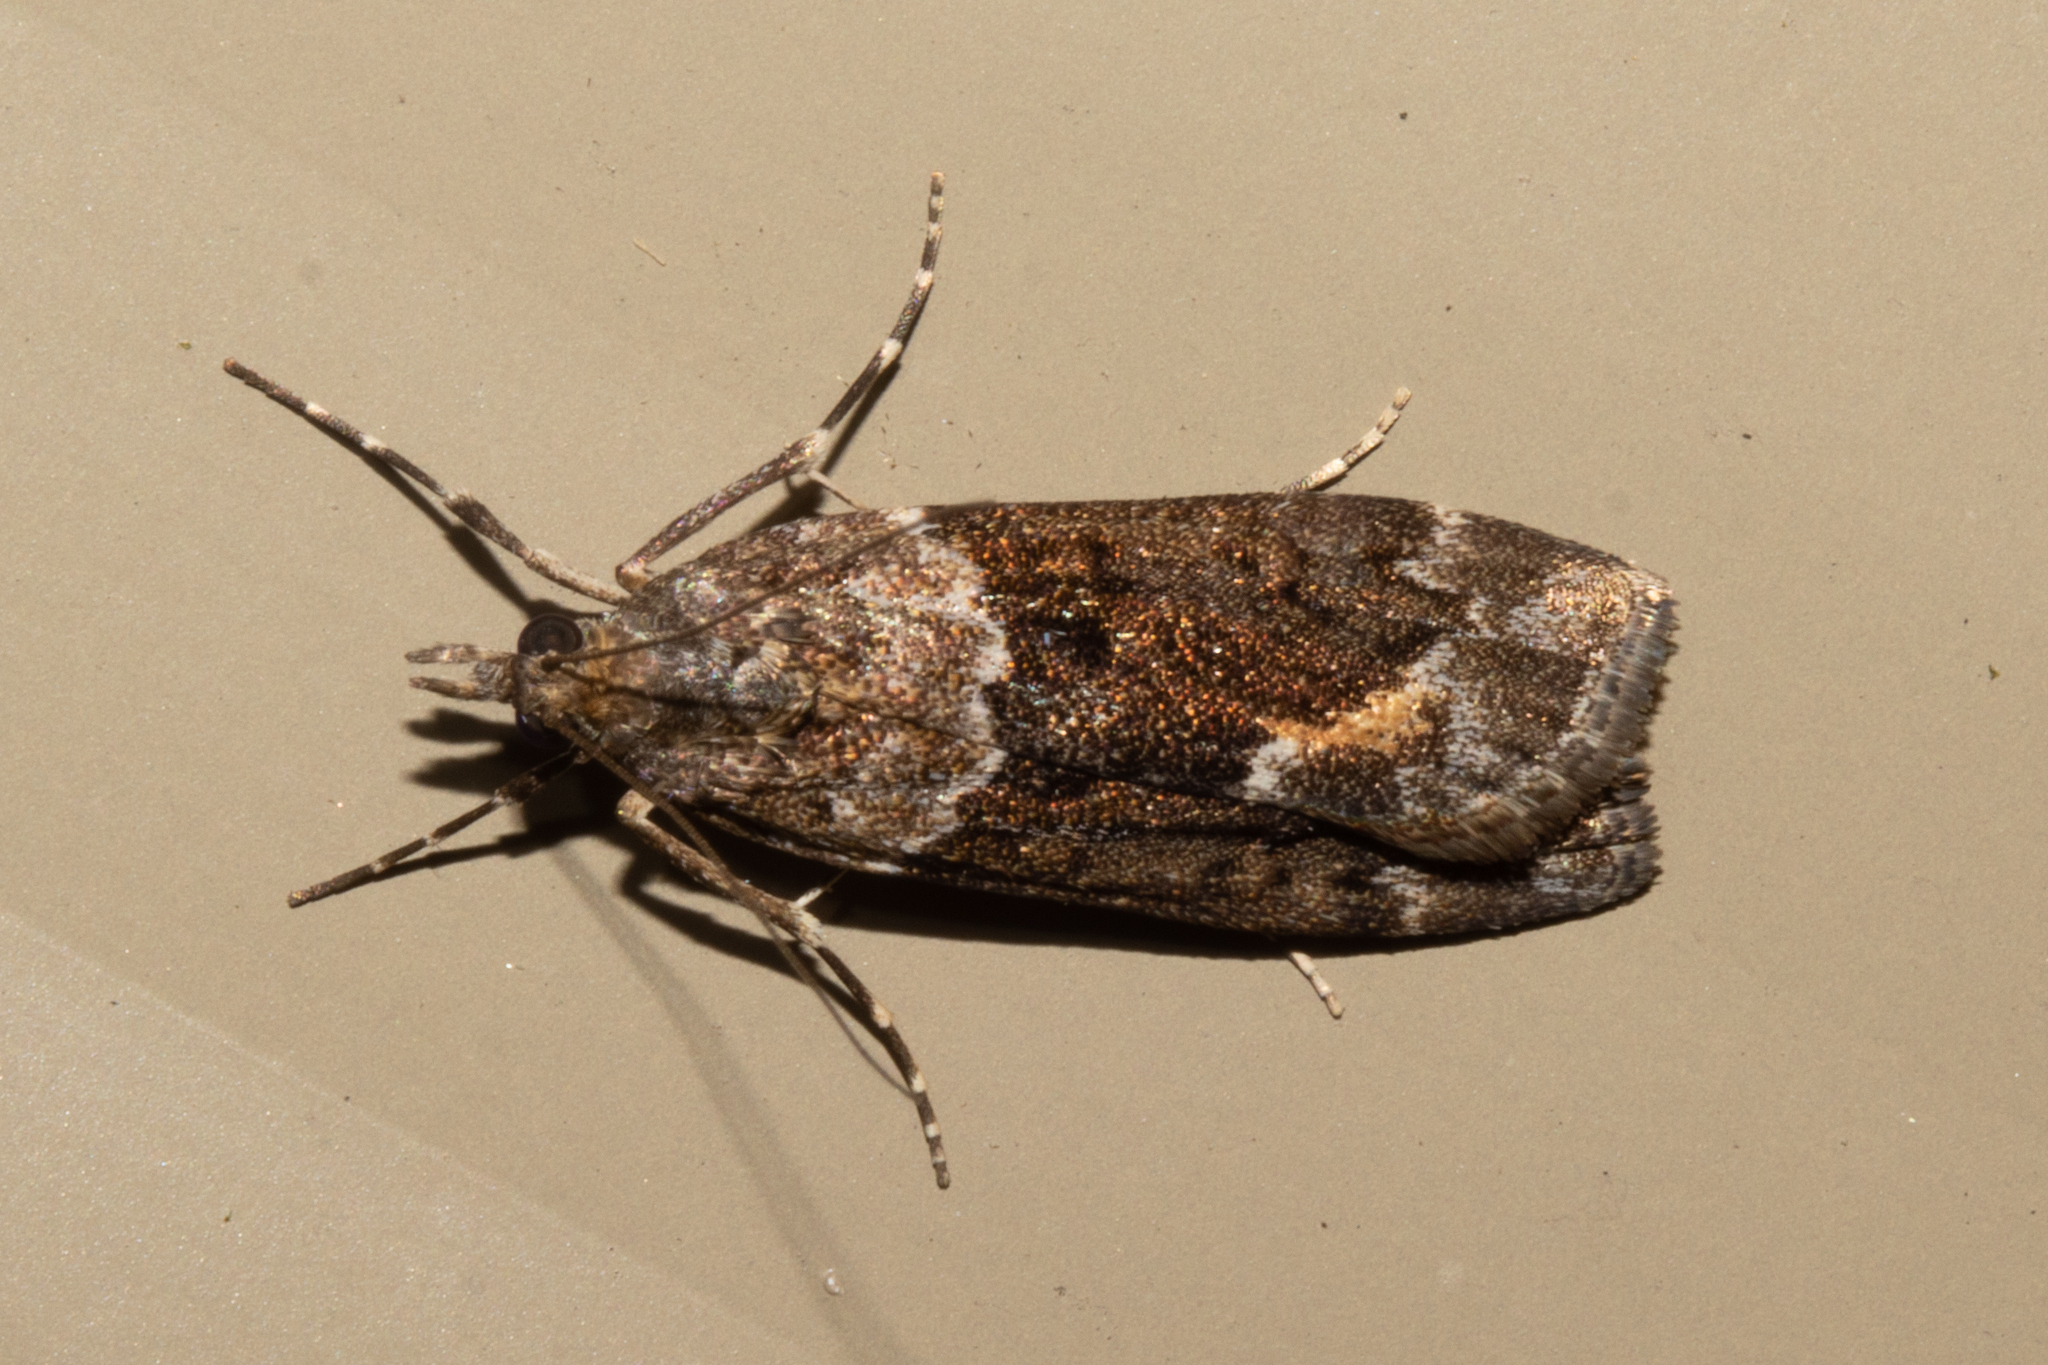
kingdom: Animalia
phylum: Arthropoda
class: Insecta
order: Lepidoptera
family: Crambidae
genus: Eudonia
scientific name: Eudonia submarginalis
